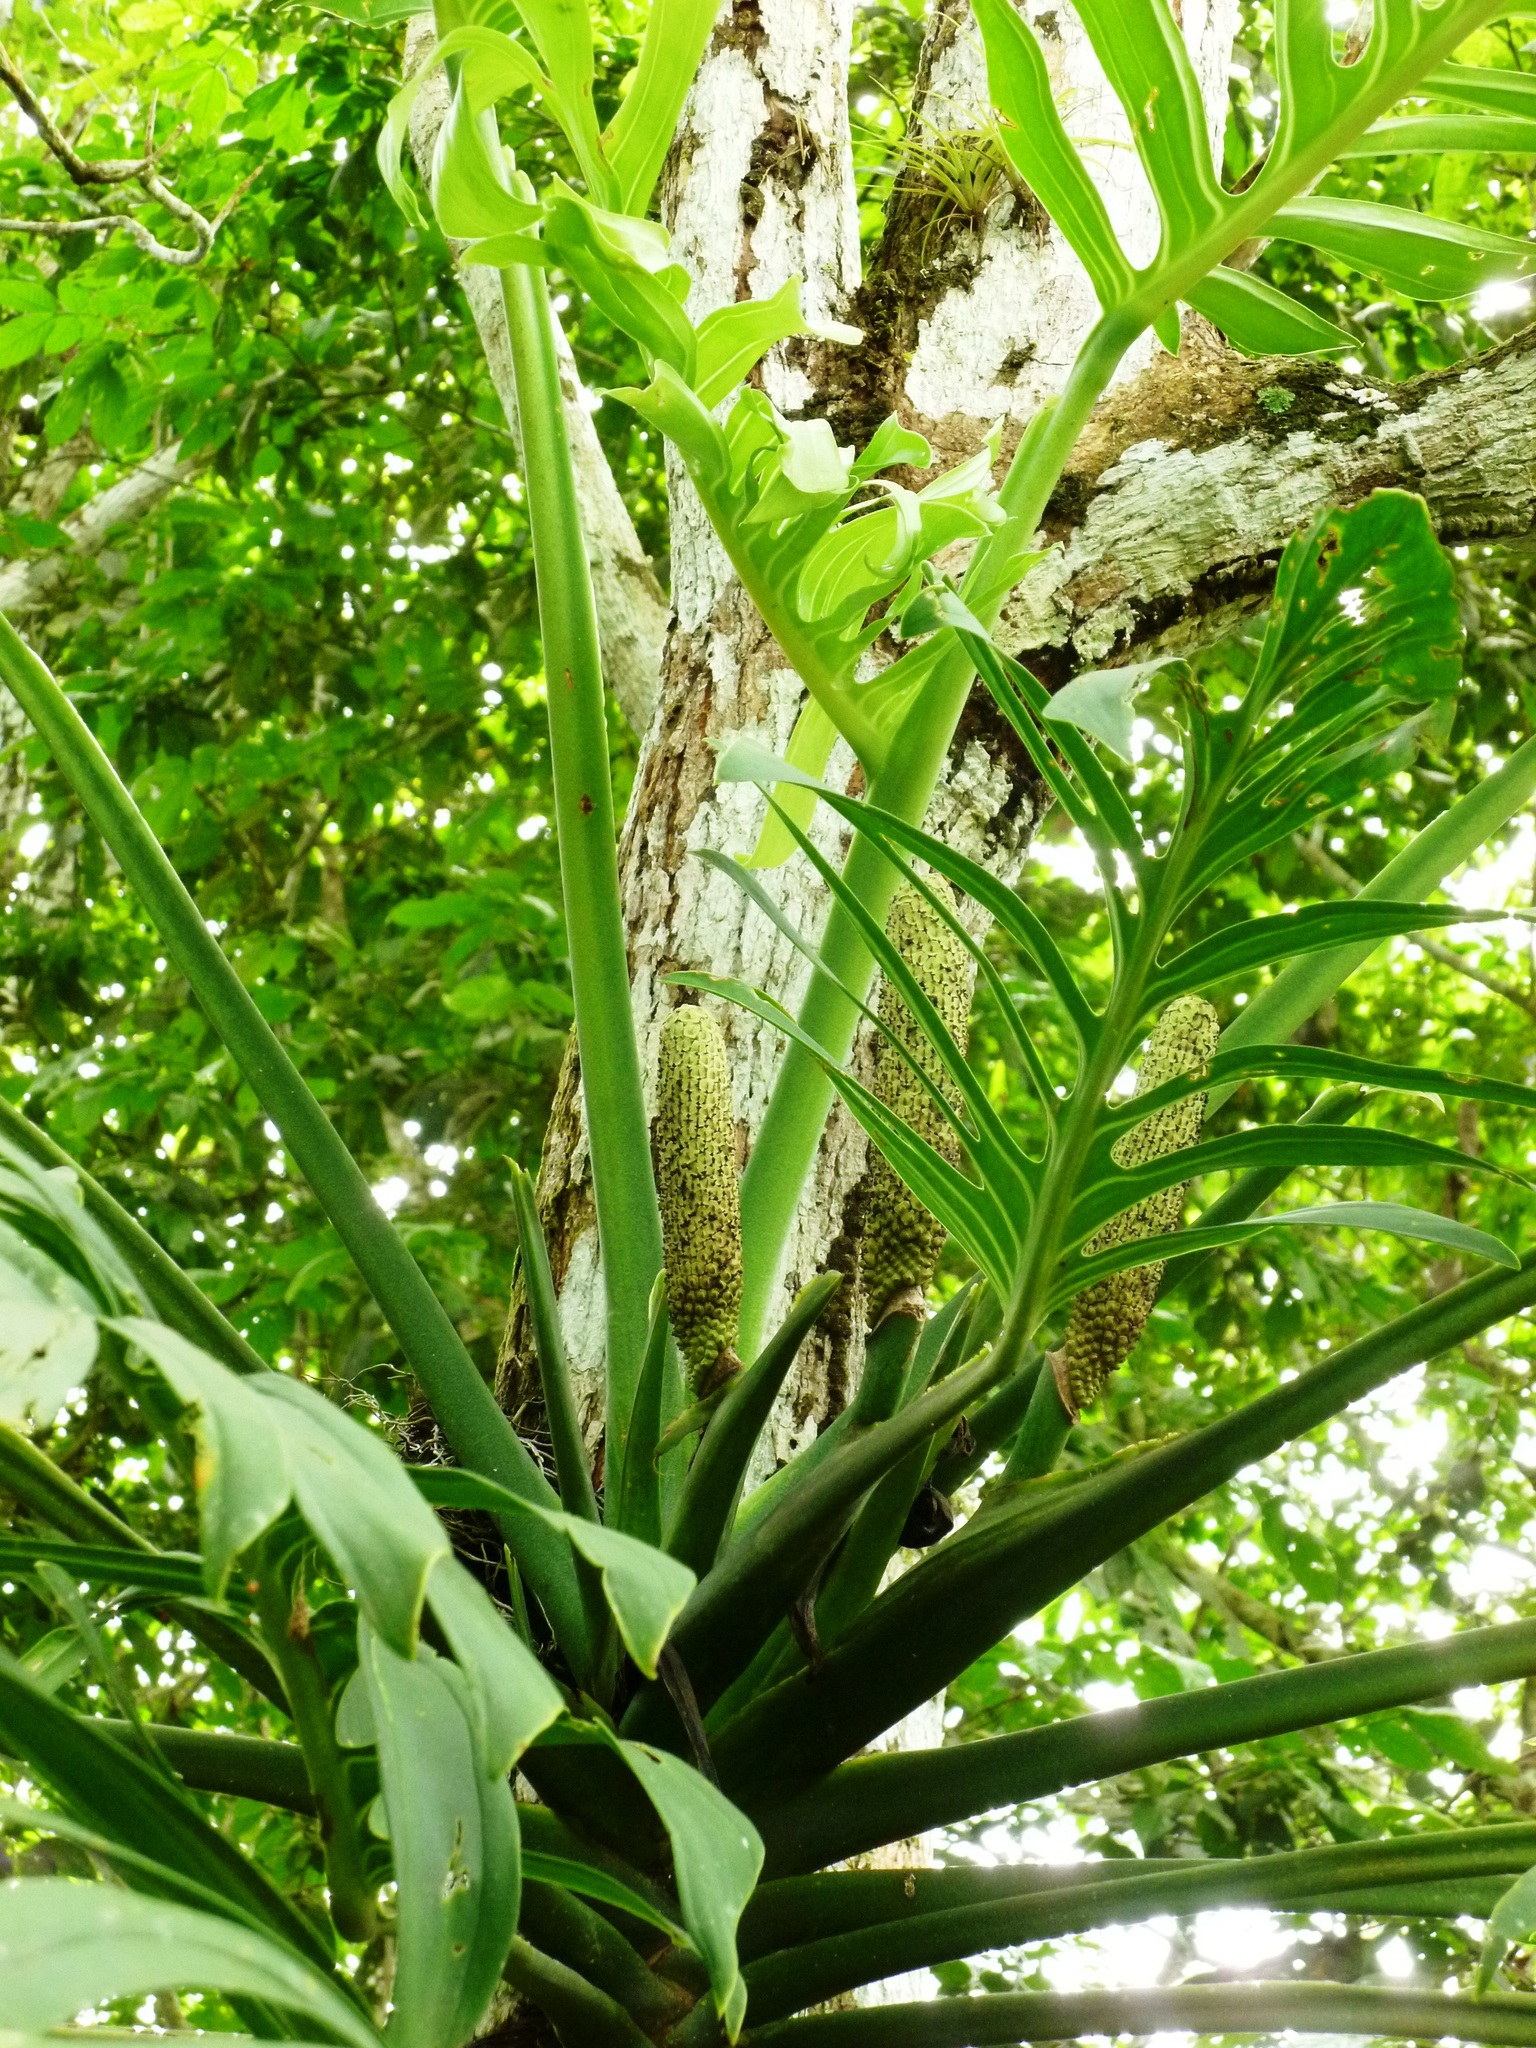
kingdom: Plantae
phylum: Tracheophyta
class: Liliopsida
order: Alismatales
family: Araceae
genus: Monstera
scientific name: Monstera pinnatipartita
